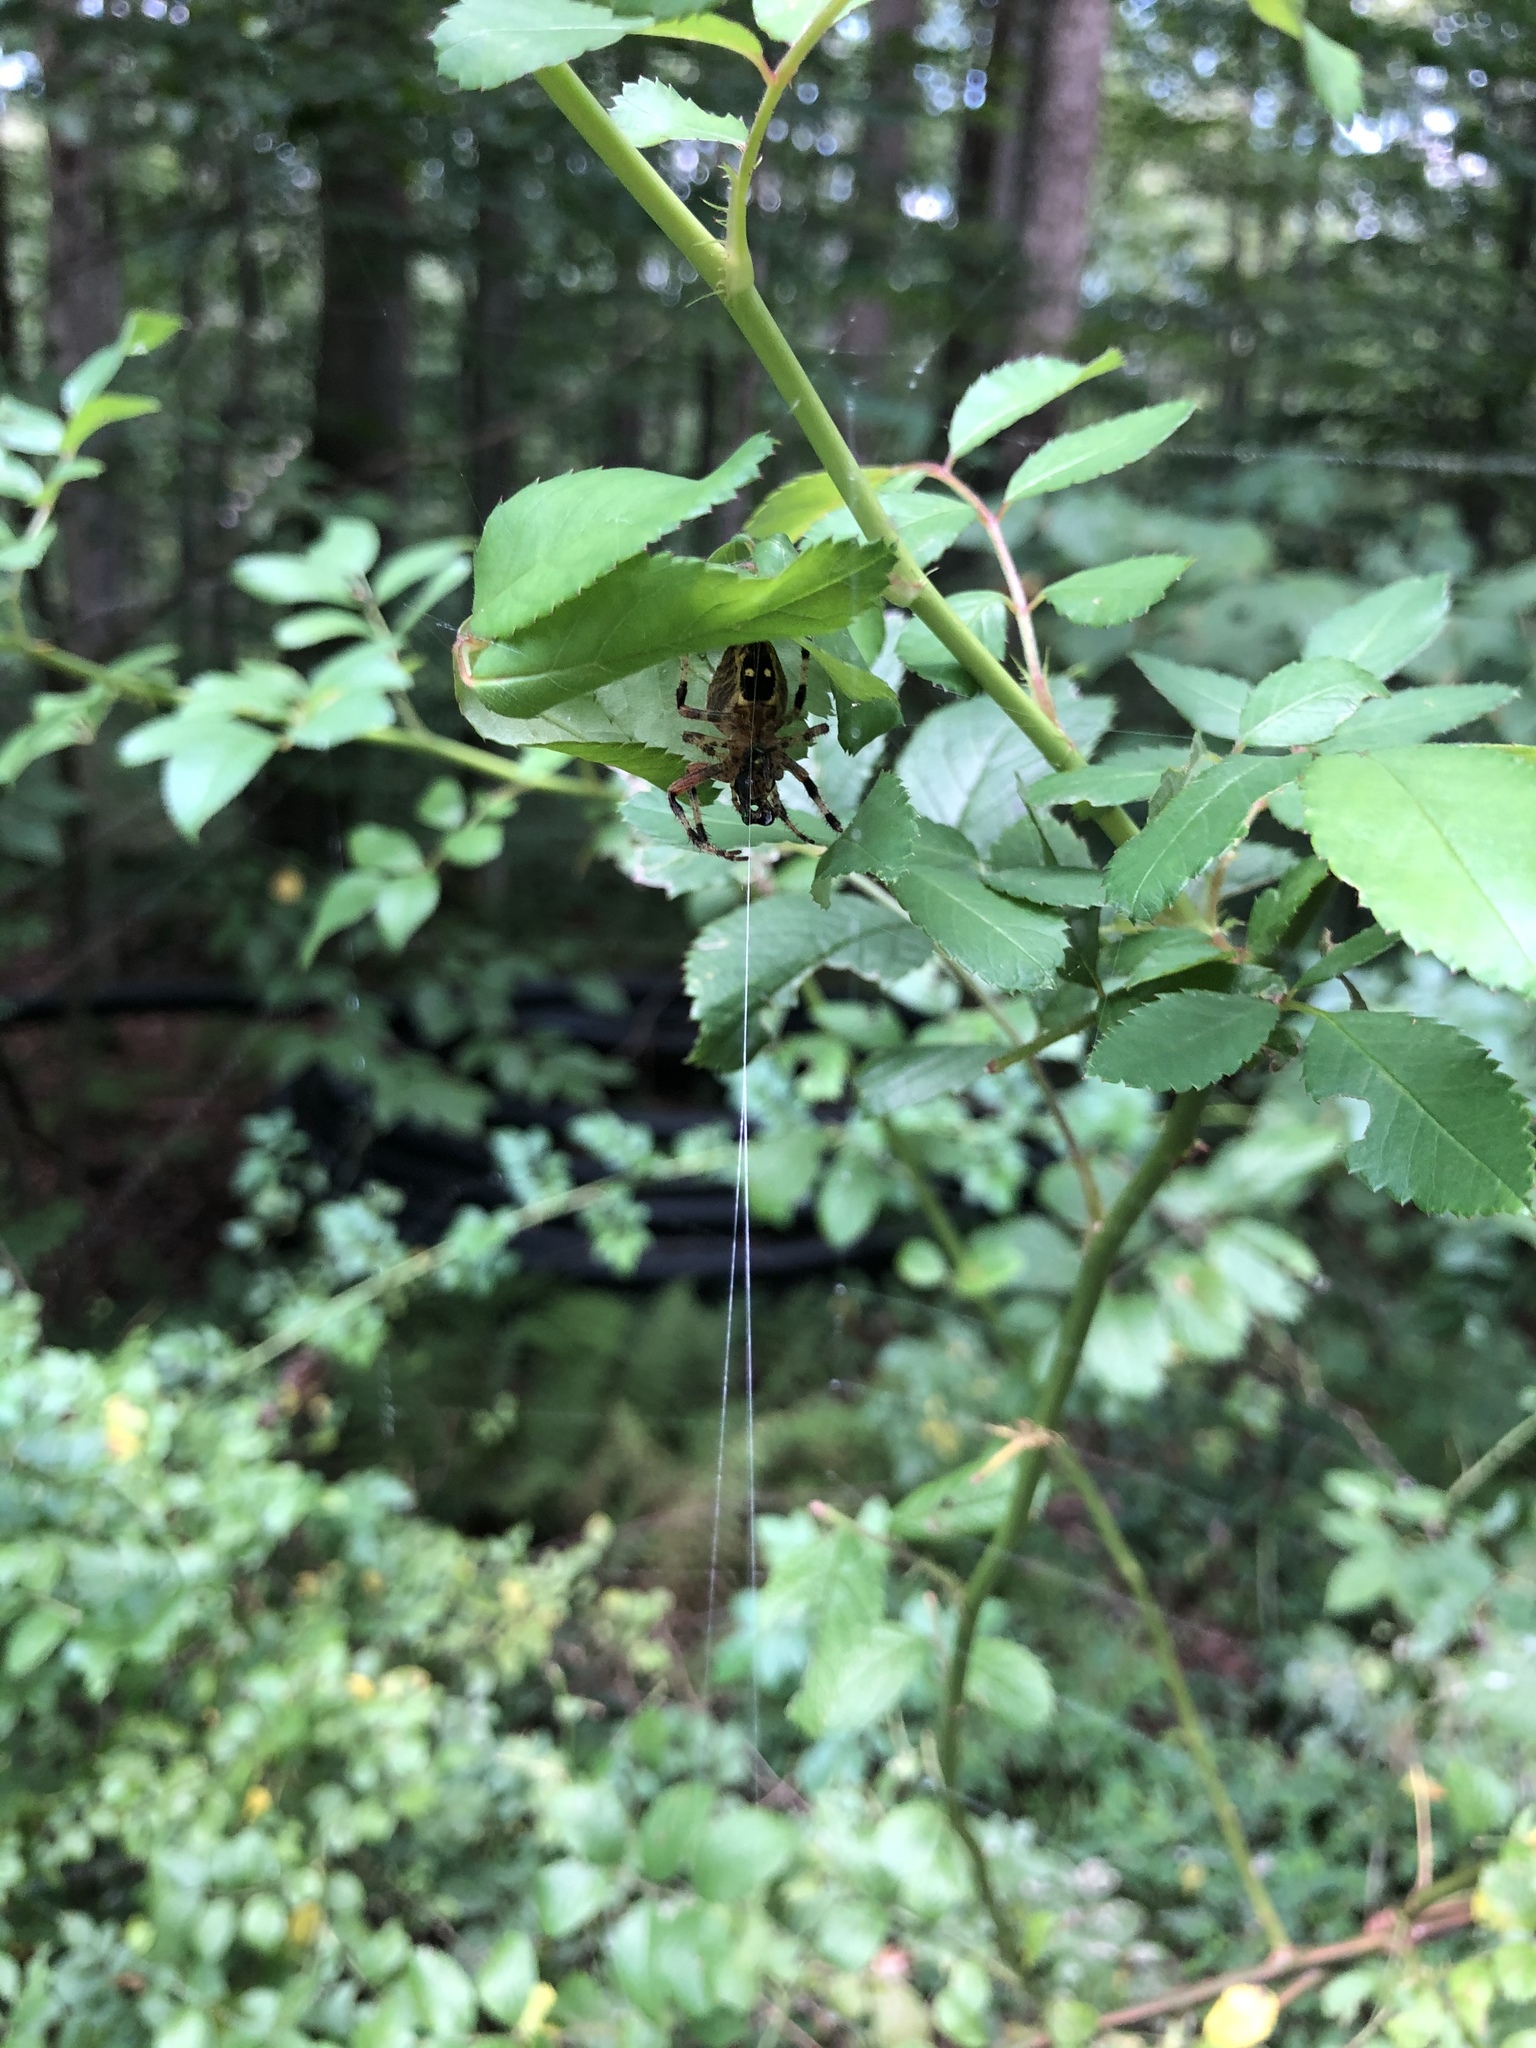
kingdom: Animalia
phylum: Arthropoda
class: Arachnida
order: Araneae
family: Araneidae
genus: Araneus
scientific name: Araneus nordmanni
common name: Nordmann's orbweaver
